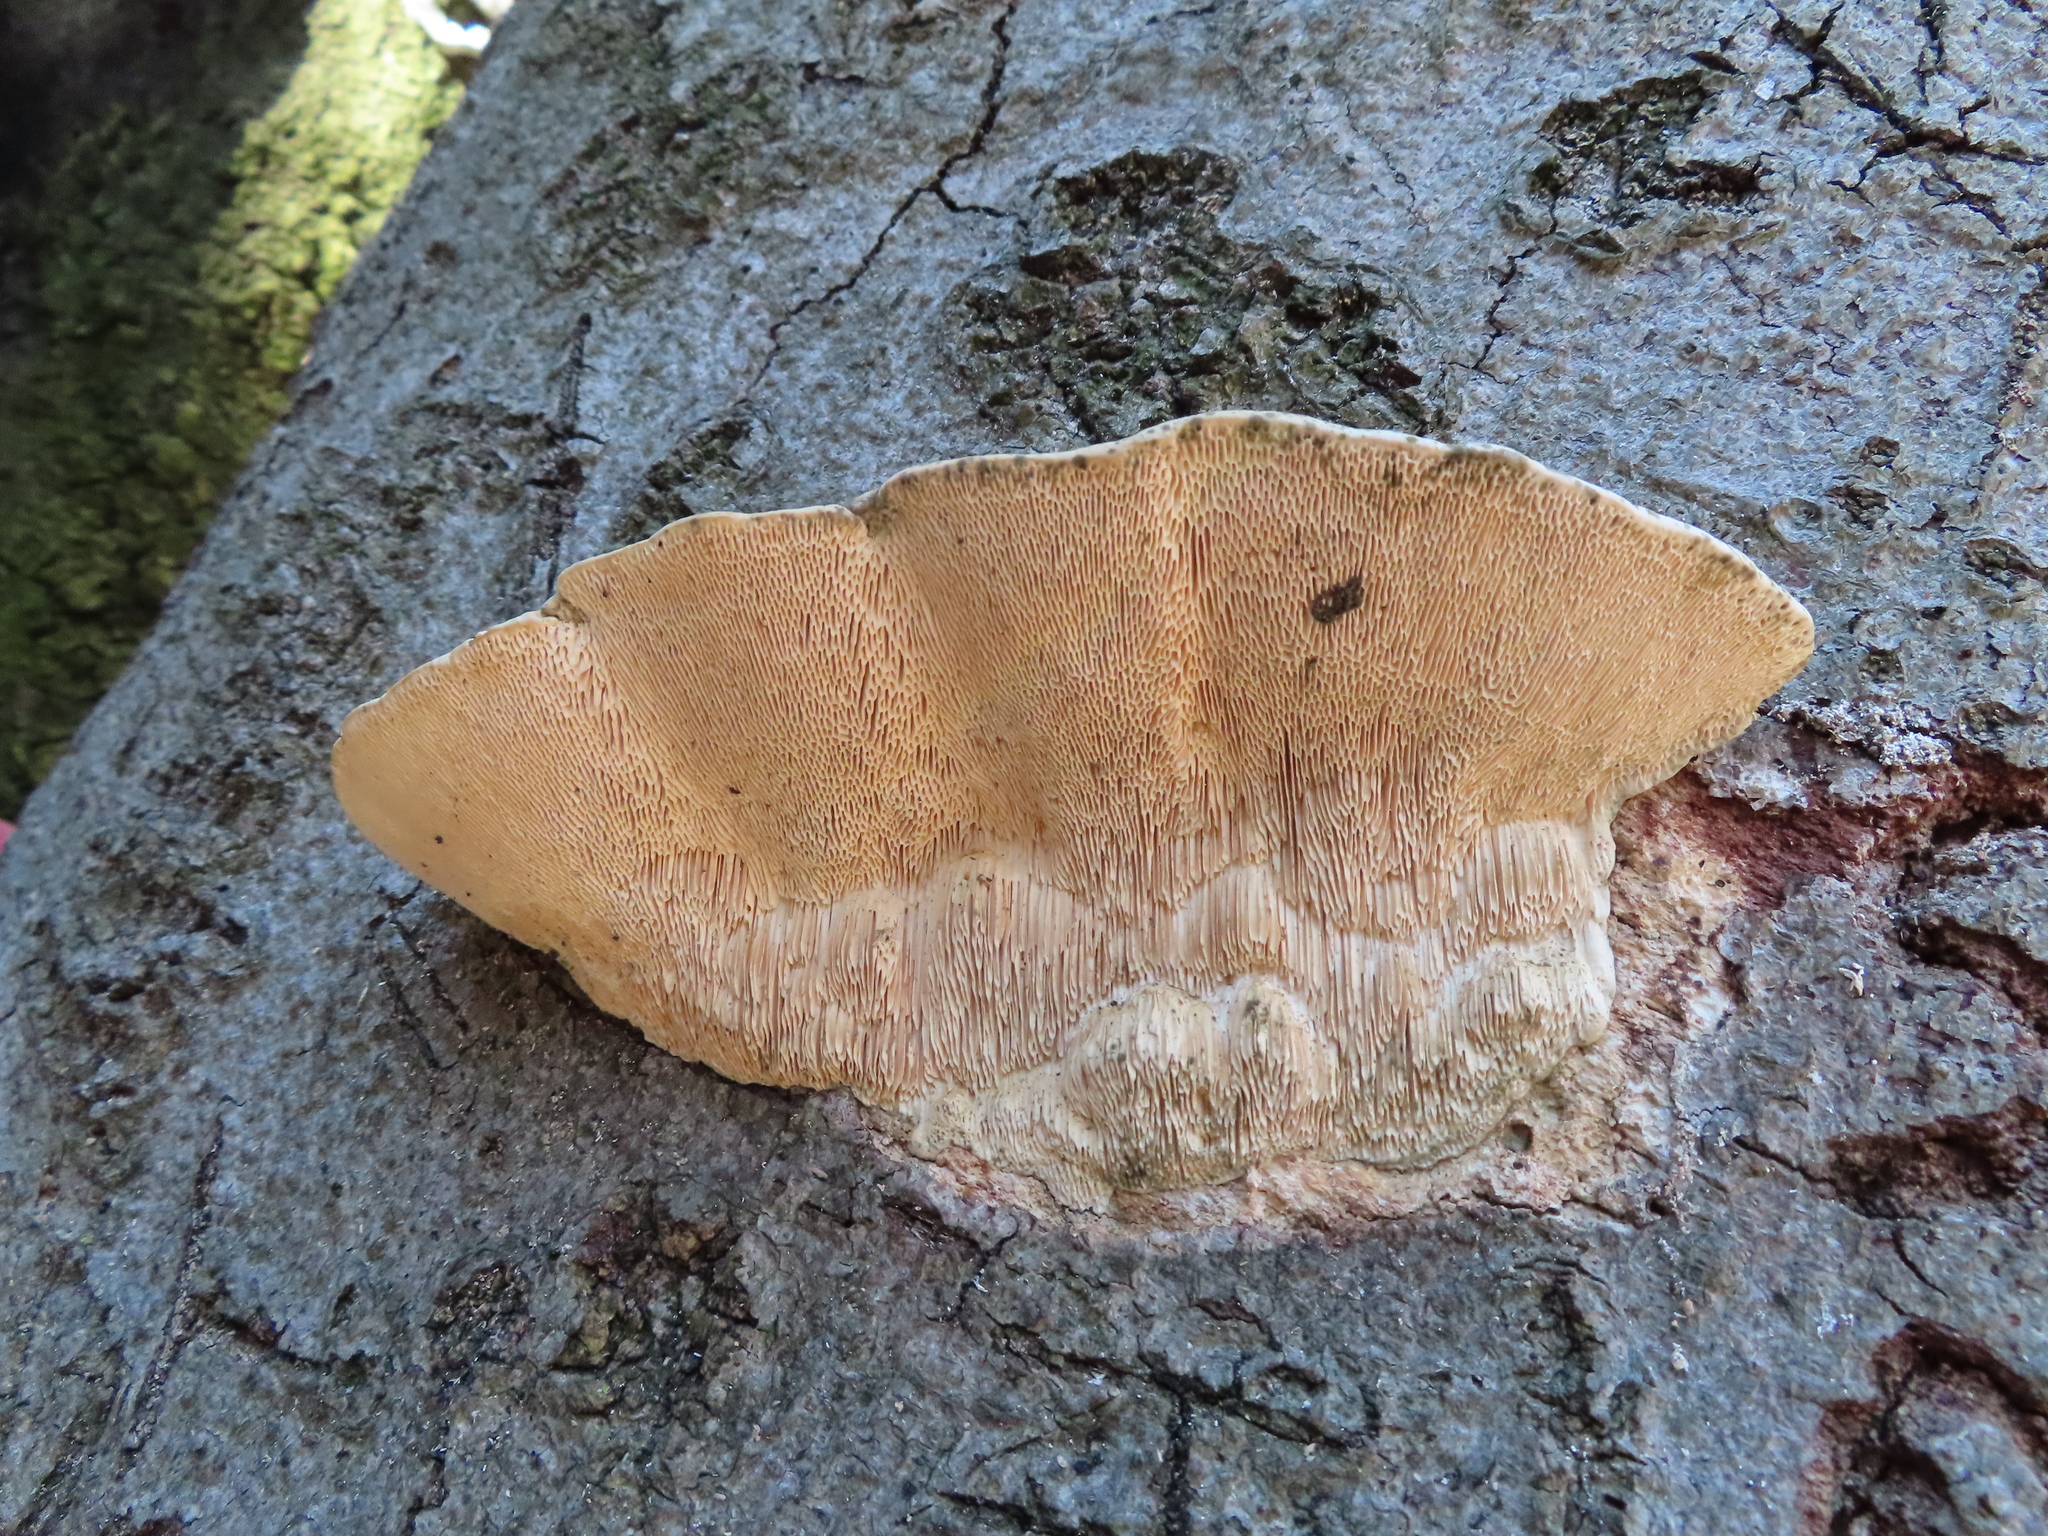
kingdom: Fungi
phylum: Basidiomycota
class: Agaricomycetes
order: Polyporales
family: Polyporaceae
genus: Trametes
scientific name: Trametes gibbosa
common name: Lumpy bracket
